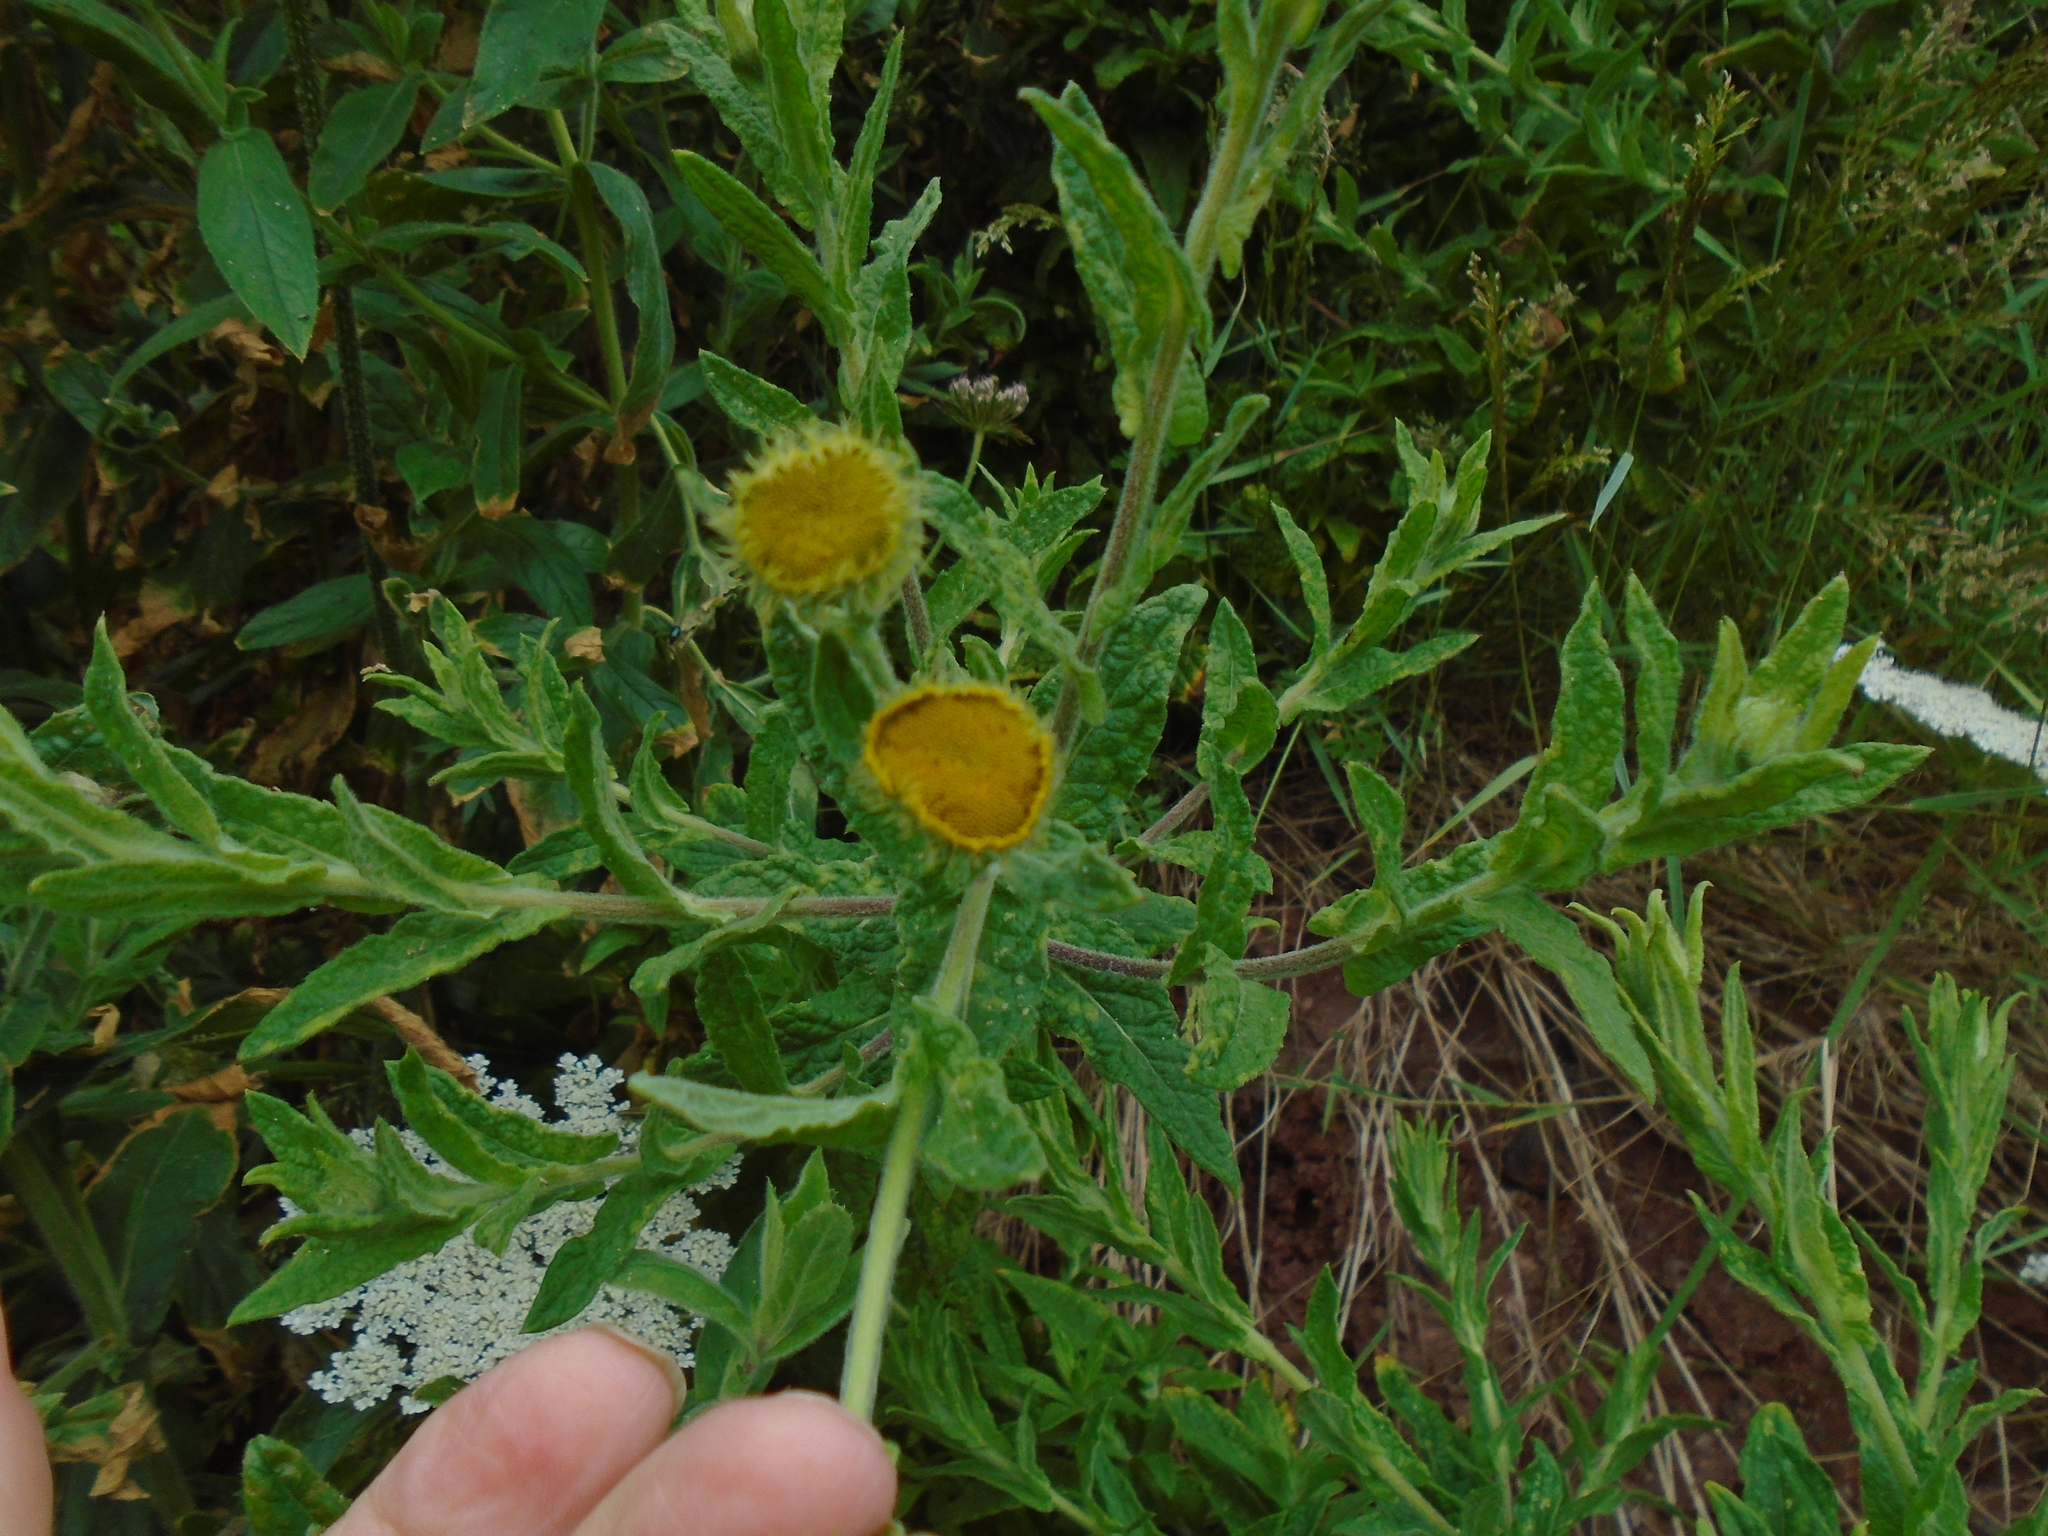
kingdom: Plantae
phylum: Tracheophyta
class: Magnoliopsida
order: Asterales
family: Asteraceae
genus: Pulicaria
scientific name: Pulicaria dysenterica
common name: Common fleabane
